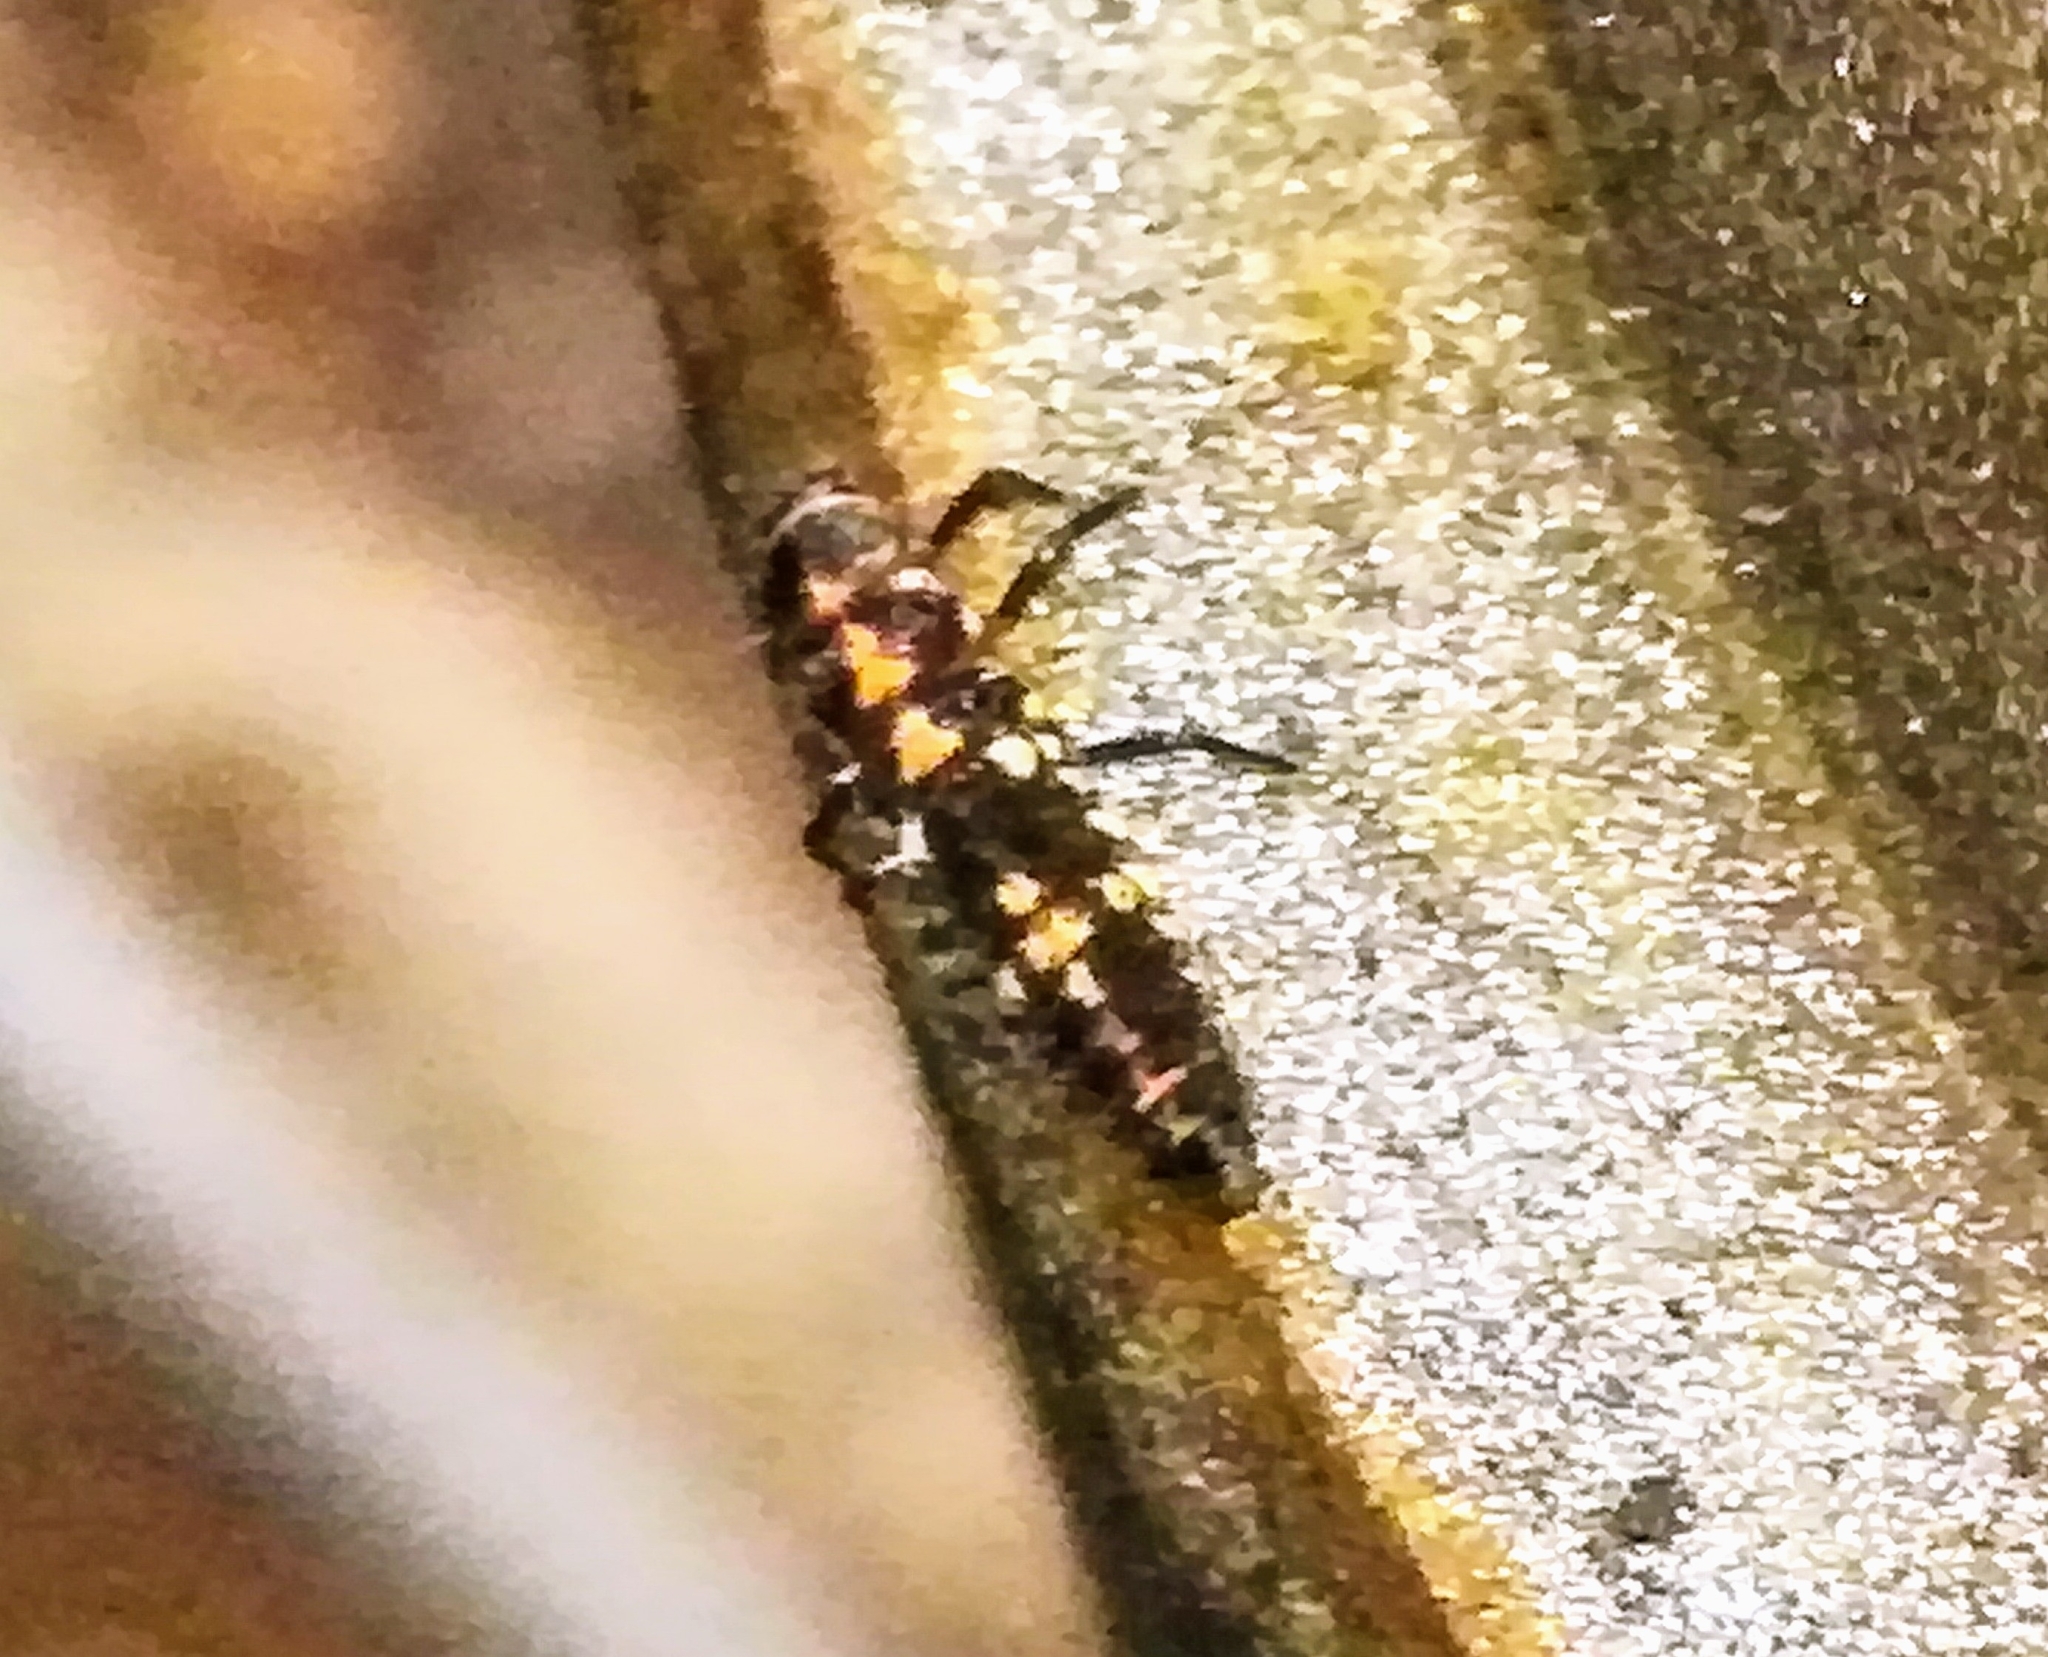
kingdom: Animalia
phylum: Arthropoda
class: Insecta
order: Coleoptera
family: Coccinellidae
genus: Oenopia
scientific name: Oenopia conglobata
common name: Ladybird beetle
